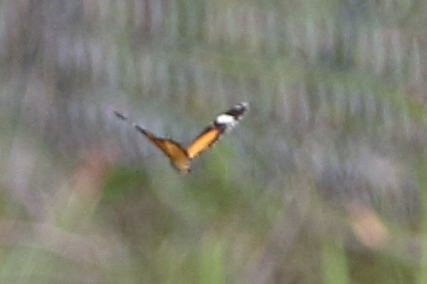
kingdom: Animalia
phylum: Arthropoda
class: Insecta
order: Lepidoptera
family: Nymphalidae
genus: Danaus
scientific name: Danaus chrysippus
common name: Plain tiger
